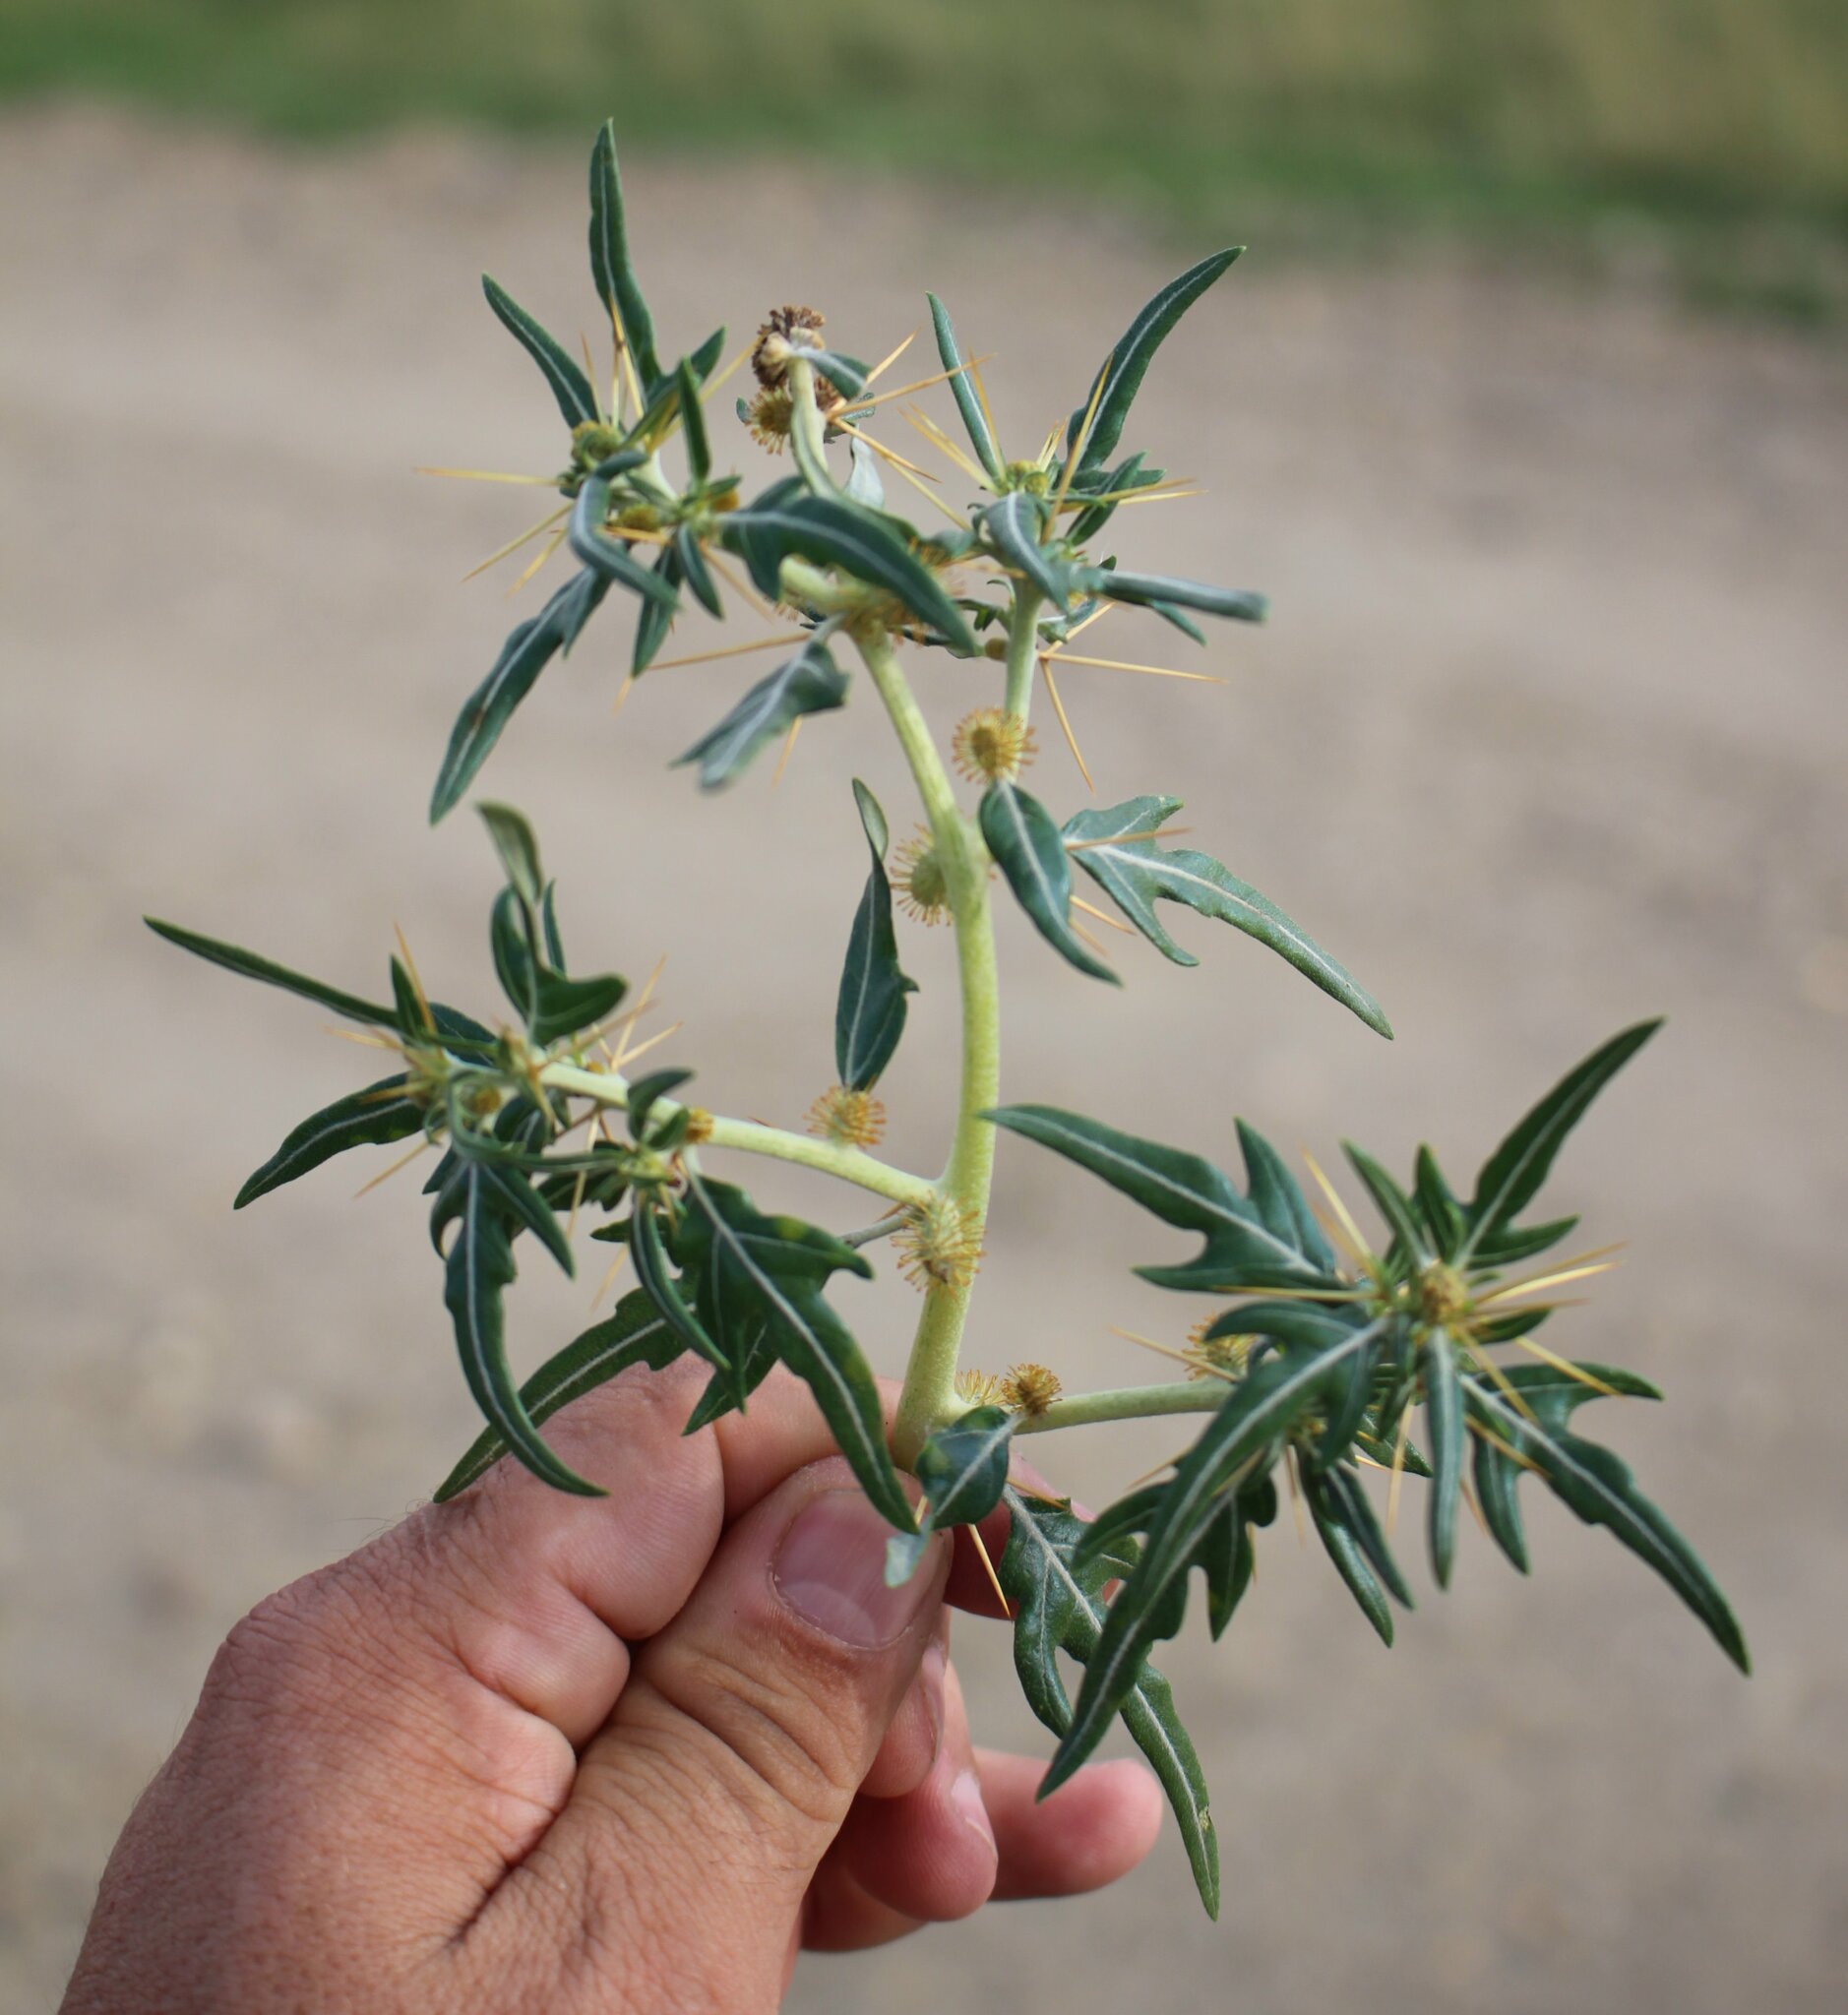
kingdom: Plantae
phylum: Tracheophyta
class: Magnoliopsida
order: Asterales
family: Asteraceae
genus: Xanthium
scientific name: Xanthium spinosum
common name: Spiny cocklebur
